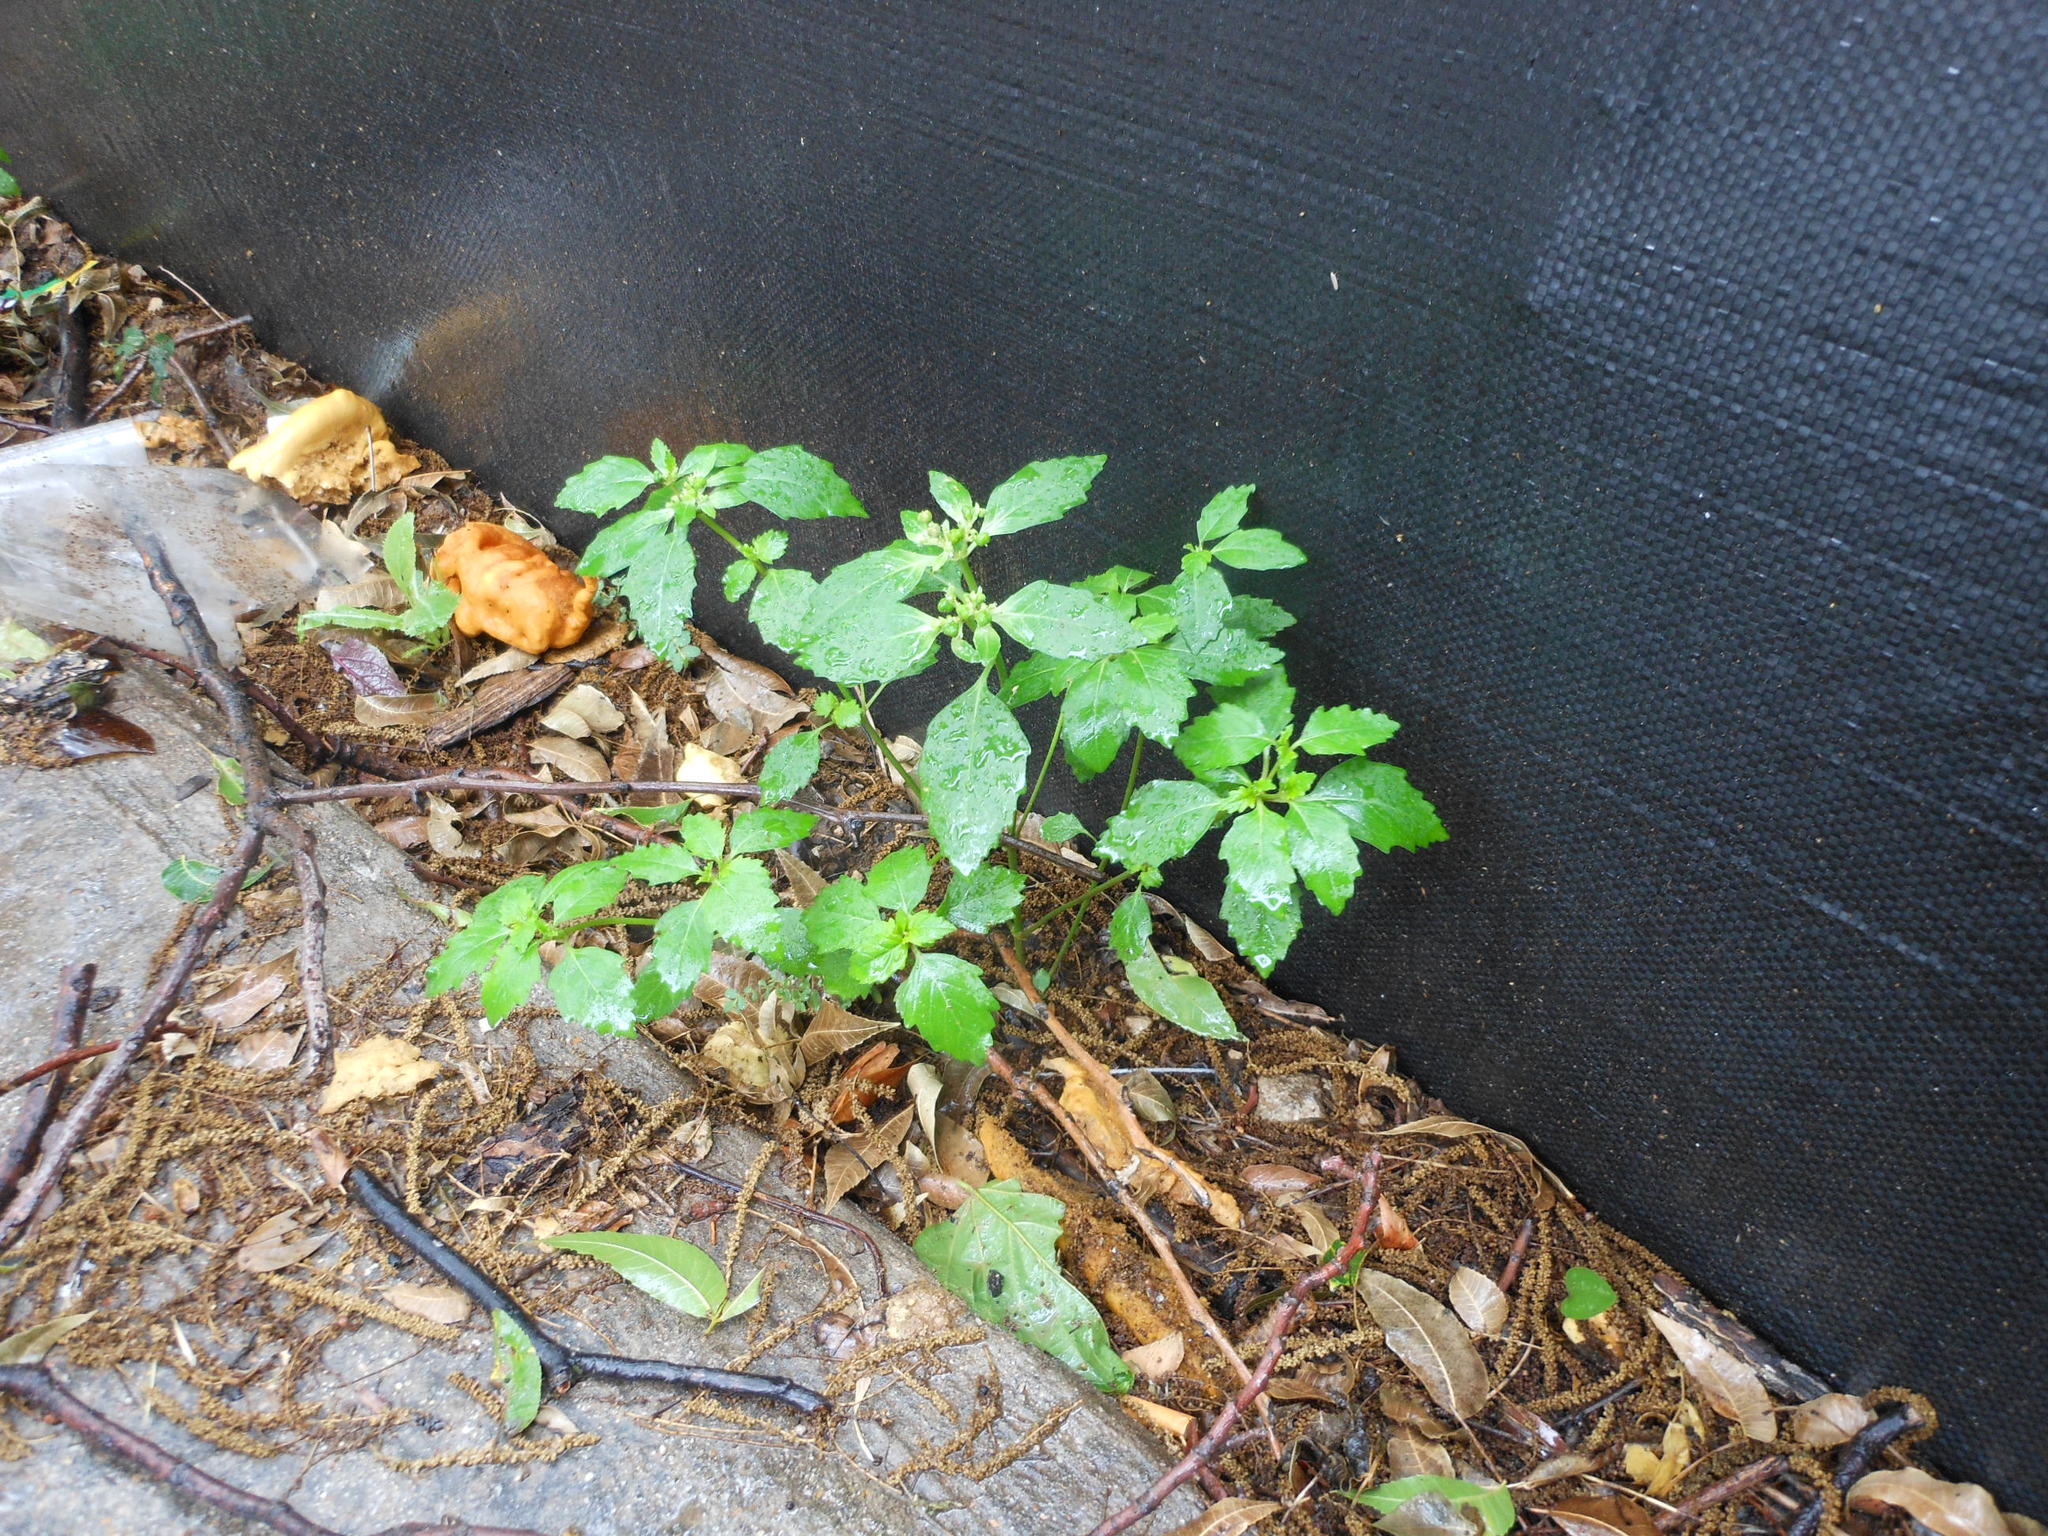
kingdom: Plantae
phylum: Tracheophyta
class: Magnoliopsida
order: Malpighiales
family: Euphorbiaceae
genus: Euphorbia
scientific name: Euphorbia dentata
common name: Dentate spurge
